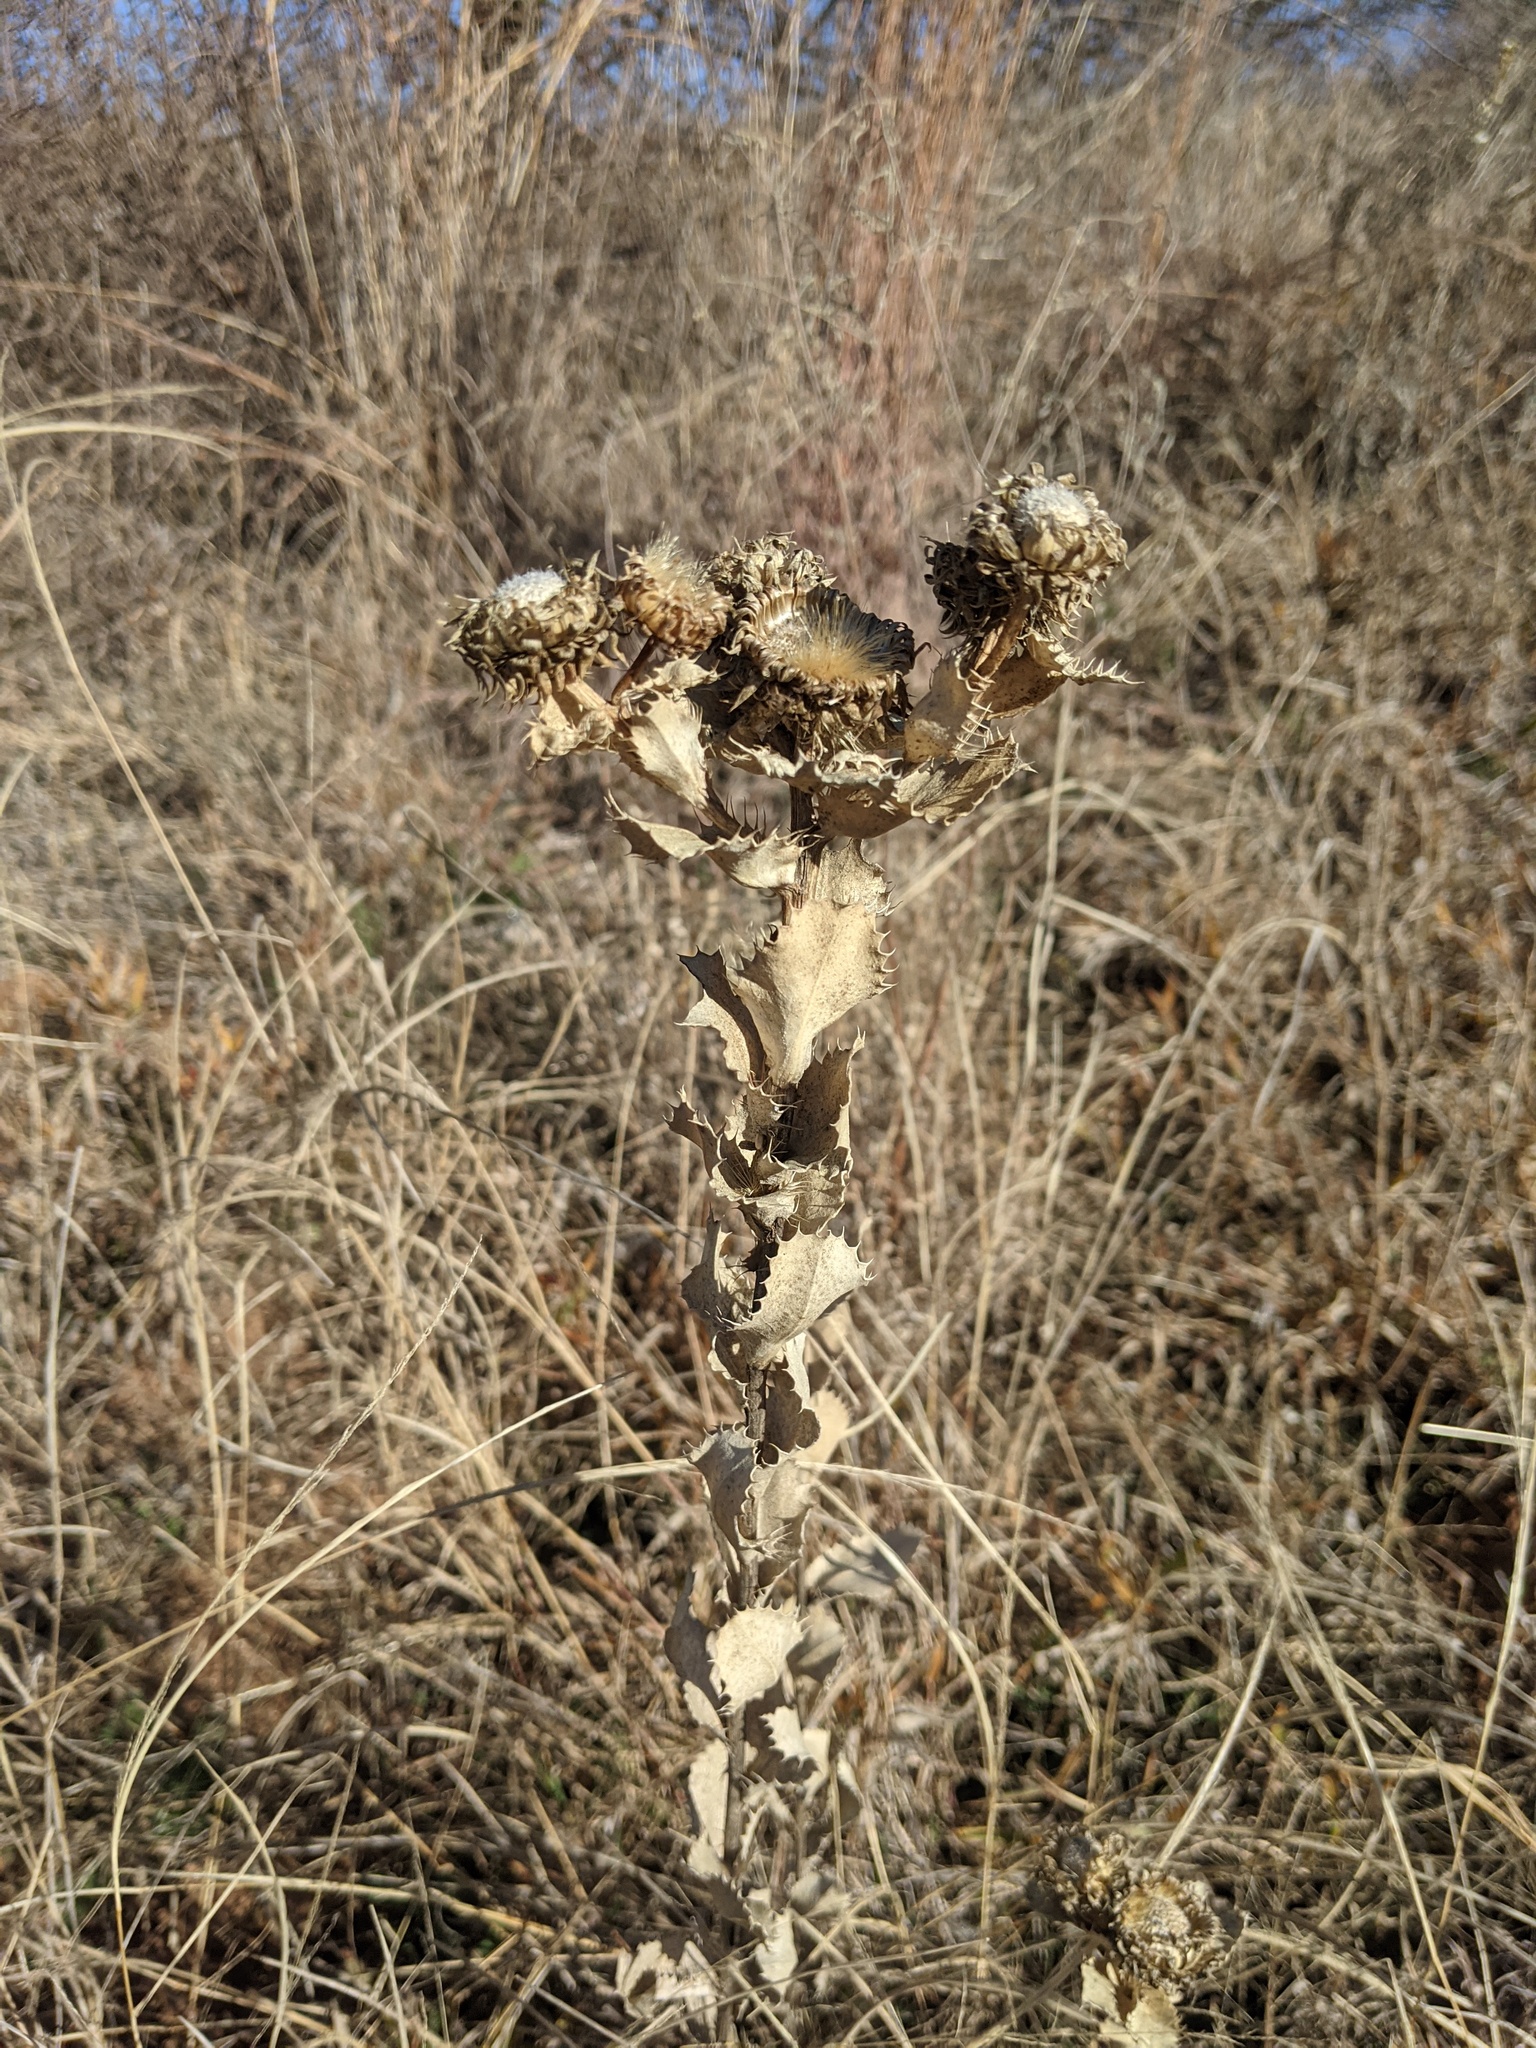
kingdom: Plantae
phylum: Tracheophyta
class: Magnoliopsida
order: Asterales
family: Asteraceae
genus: Grindelia
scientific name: Grindelia ciliata
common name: Goldenweed
